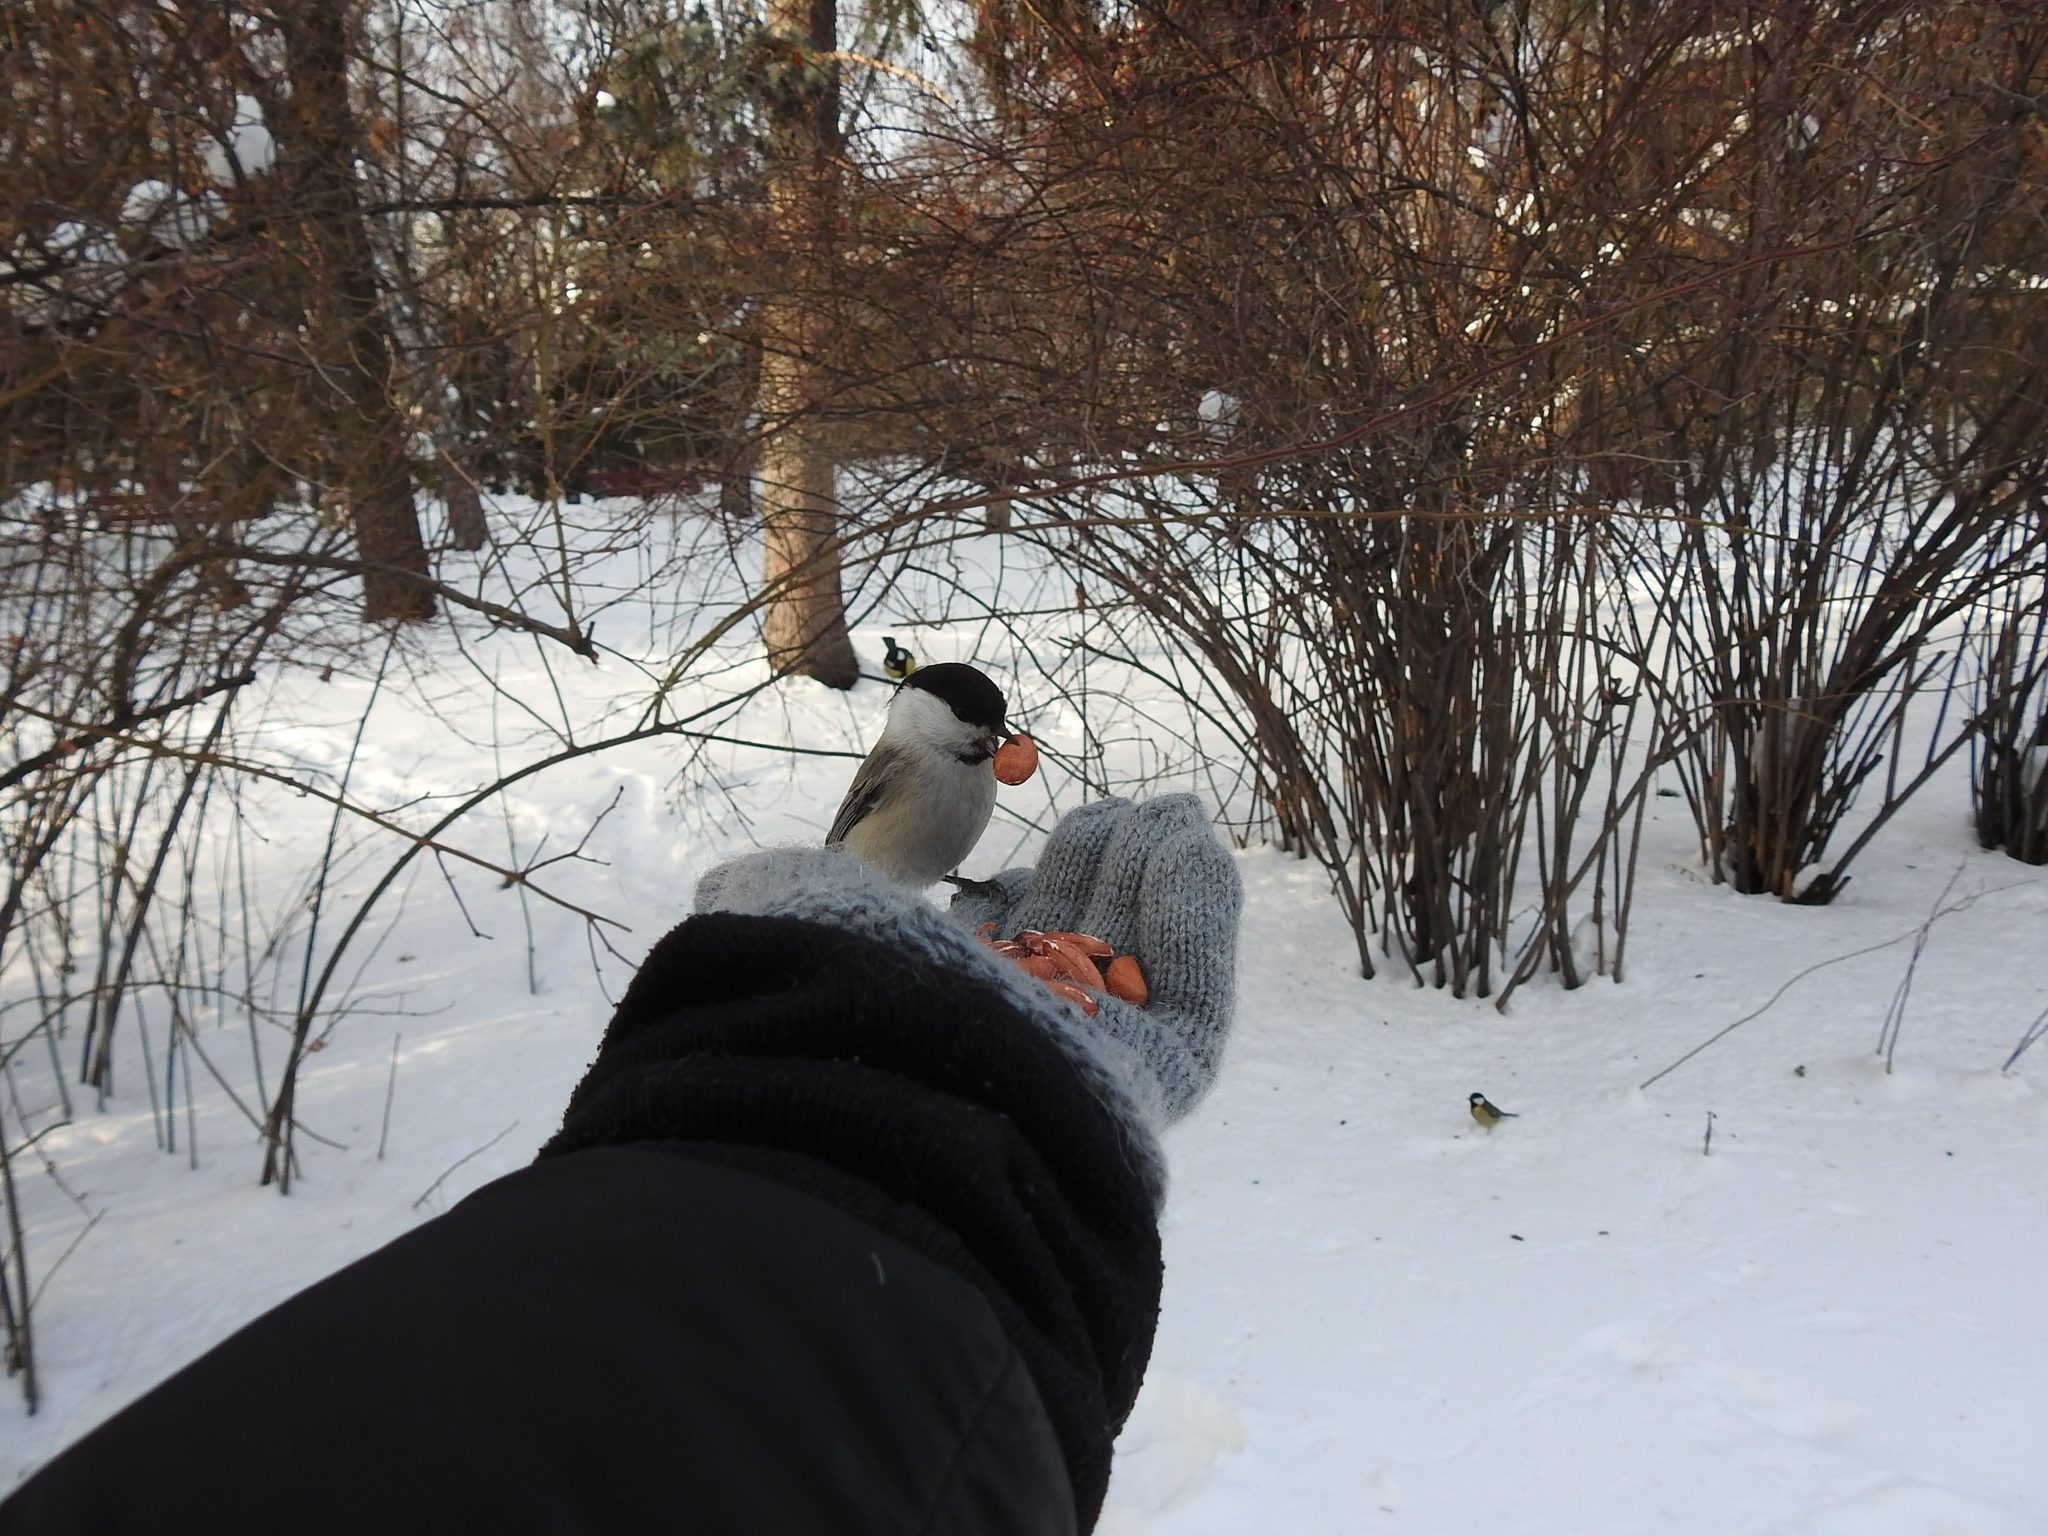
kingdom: Animalia
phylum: Chordata
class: Aves
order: Passeriformes
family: Paridae
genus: Poecile
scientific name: Poecile montanus
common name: Willow tit
